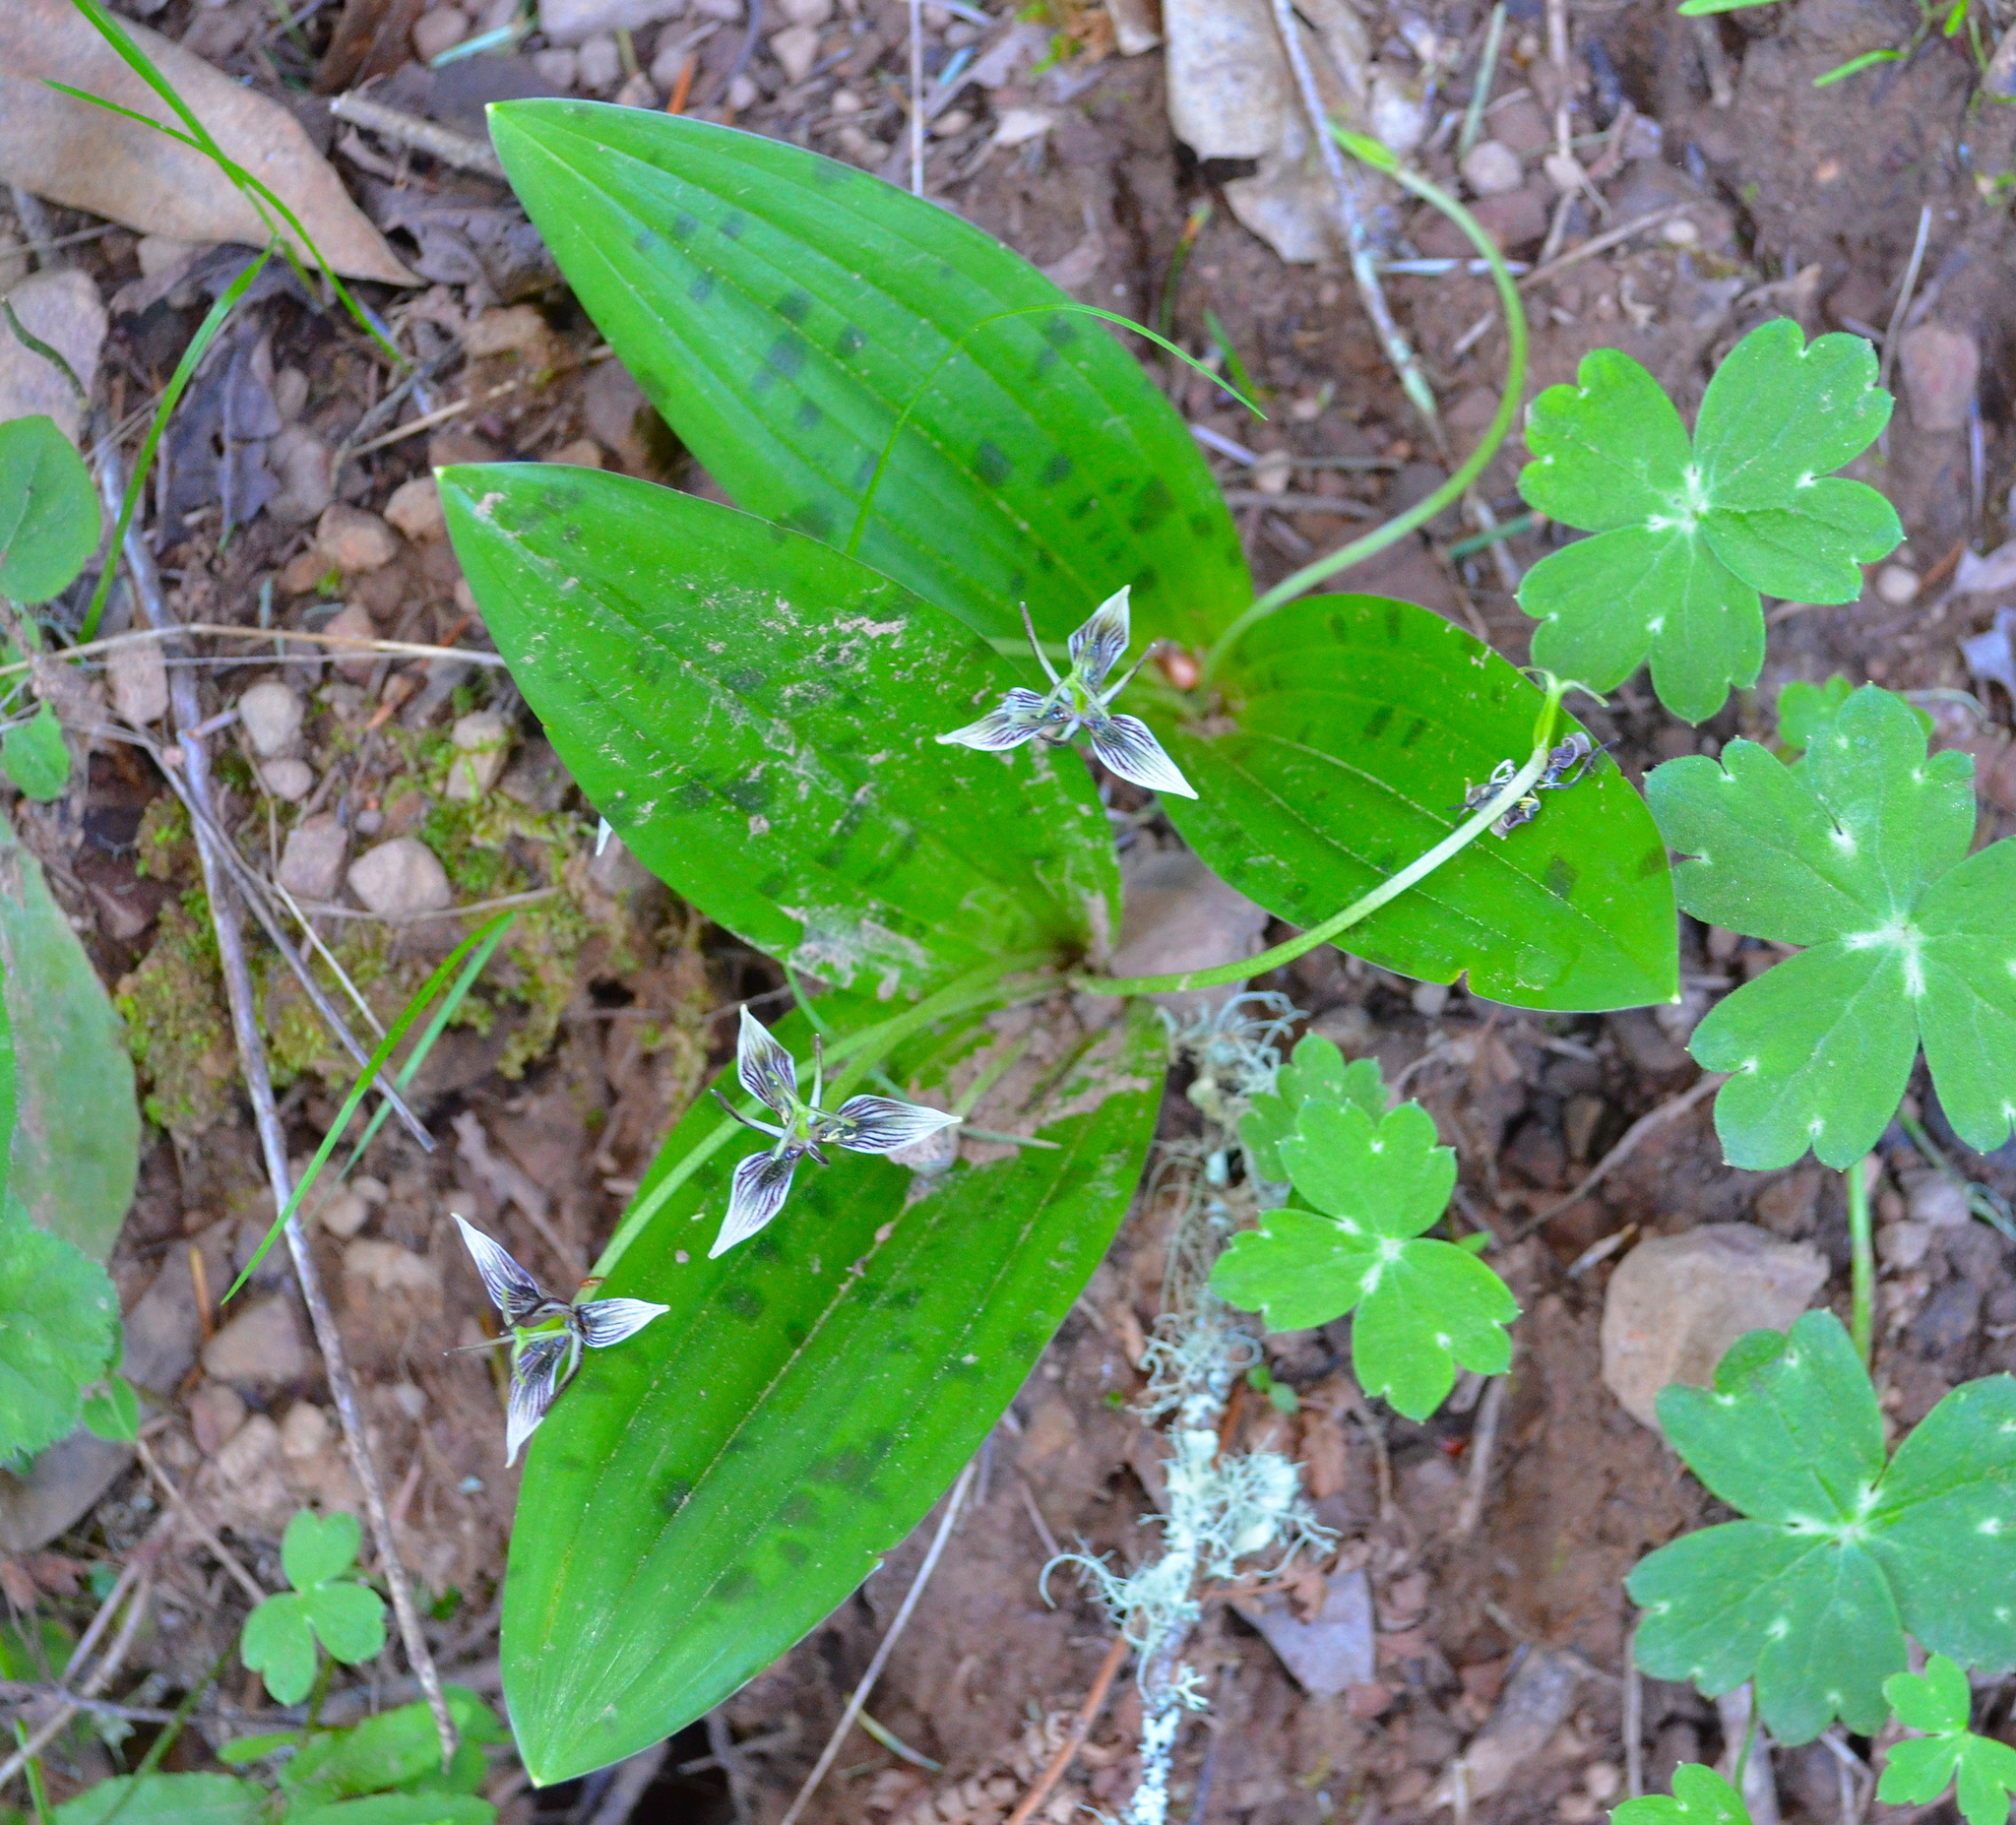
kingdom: Plantae
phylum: Tracheophyta
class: Liliopsida
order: Liliales
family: Liliaceae
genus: Scoliopus
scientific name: Scoliopus bigelovii
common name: Foetid adder's-tongue
